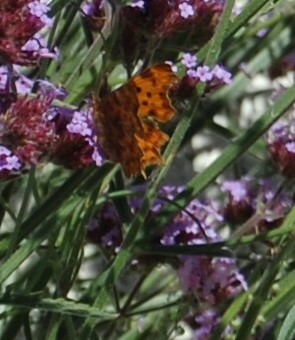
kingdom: Animalia
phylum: Arthropoda
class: Insecta
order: Lepidoptera
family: Nymphalidae
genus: Polygonia
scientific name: Polygonia c-album
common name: Comma
